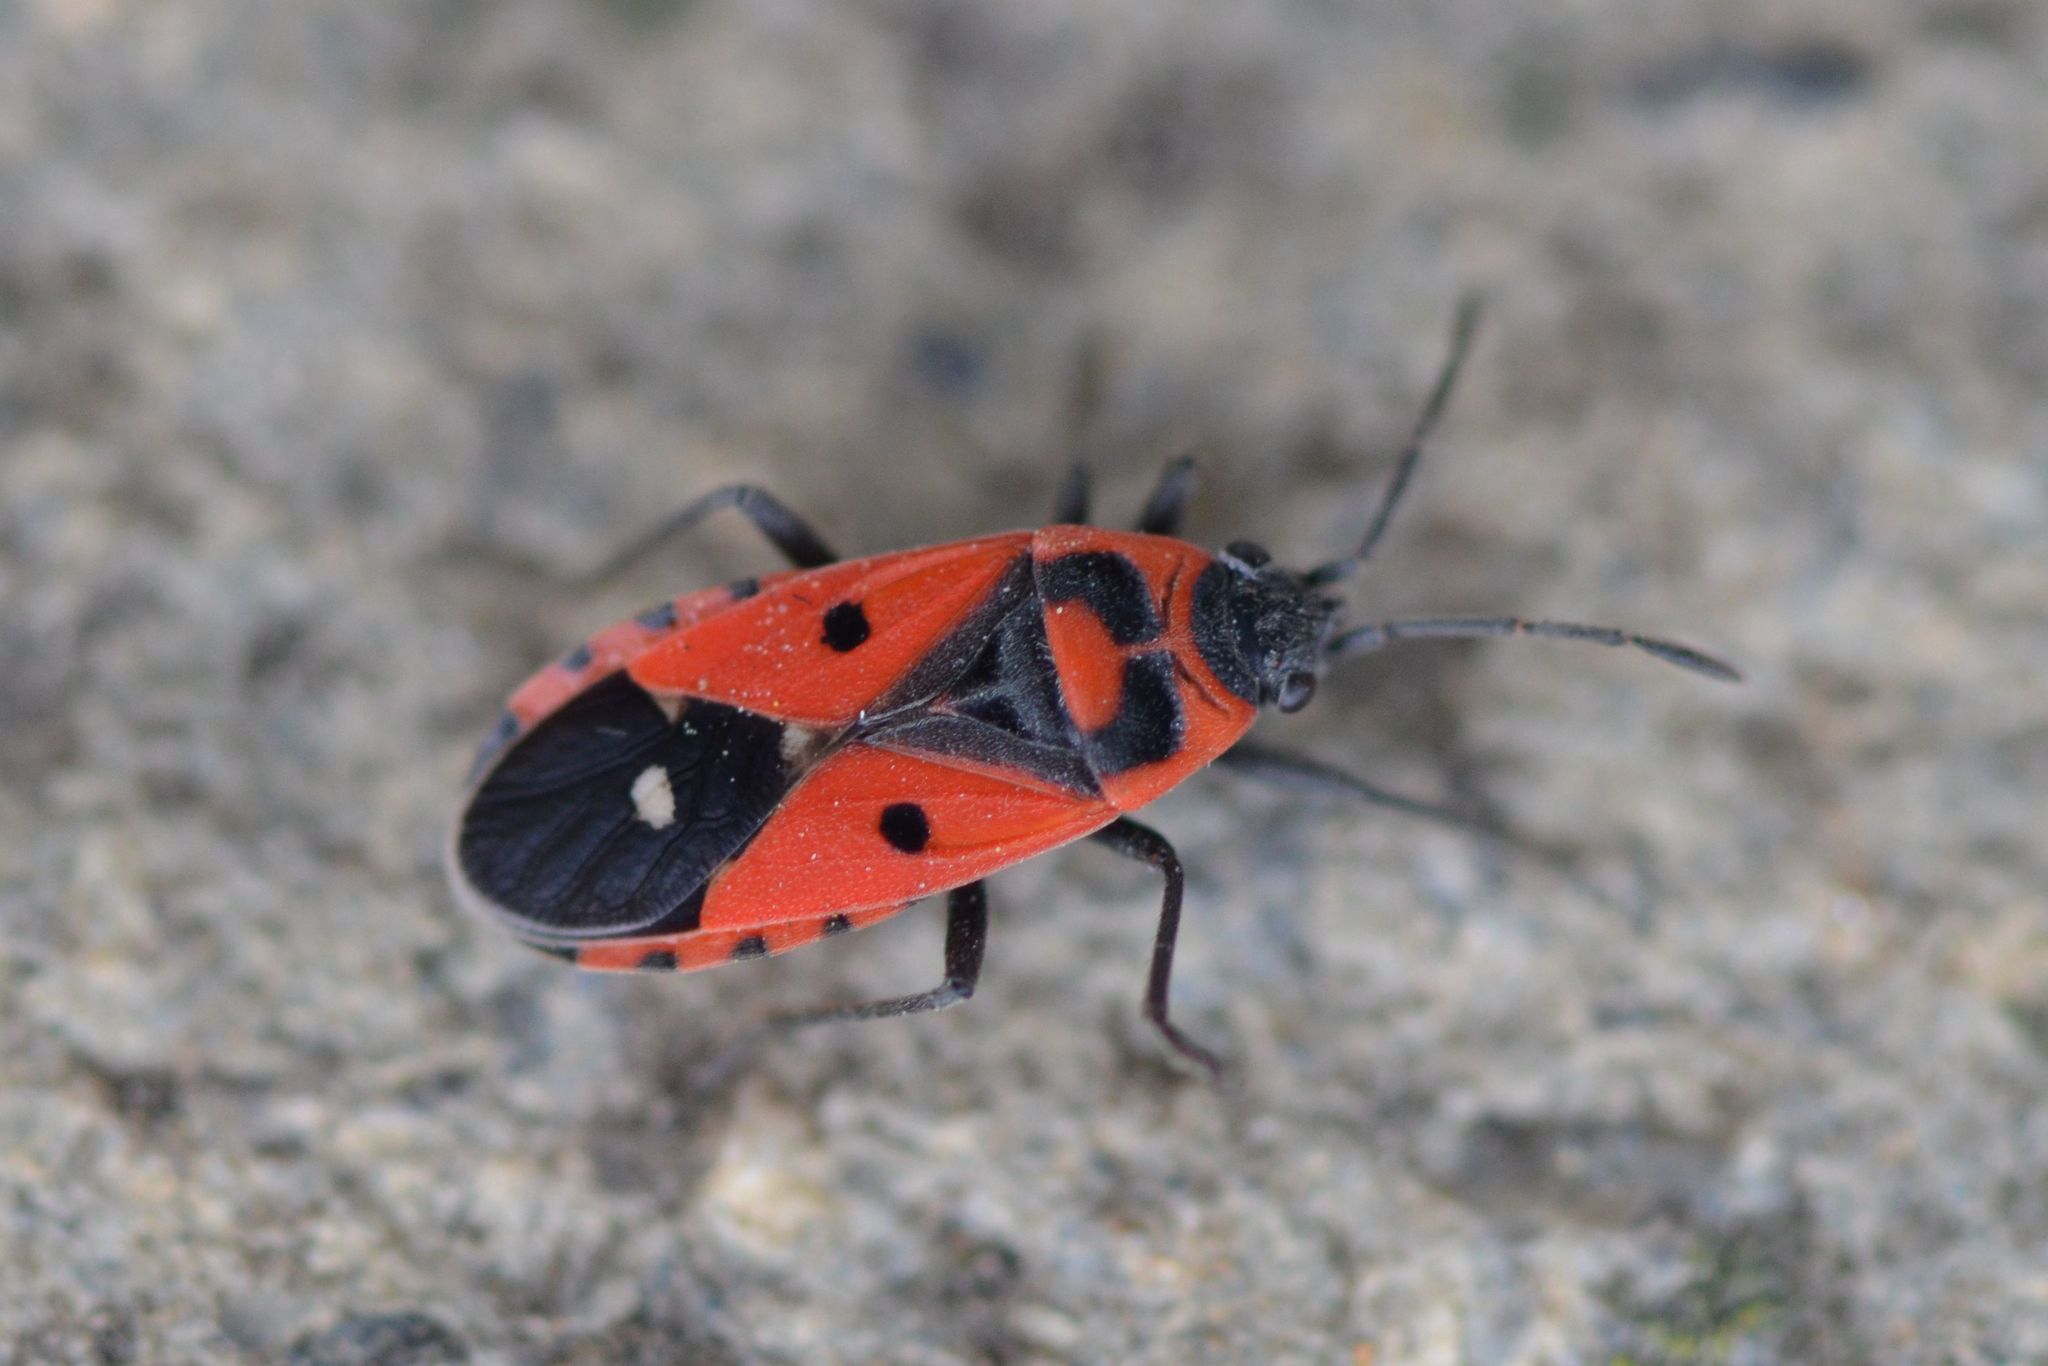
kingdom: Animalia
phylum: Arthropoda
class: Insecta
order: Hemiptera
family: Lygaeidae
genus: Melanocoryphus
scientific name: Melanocoryphus albomaculatus
